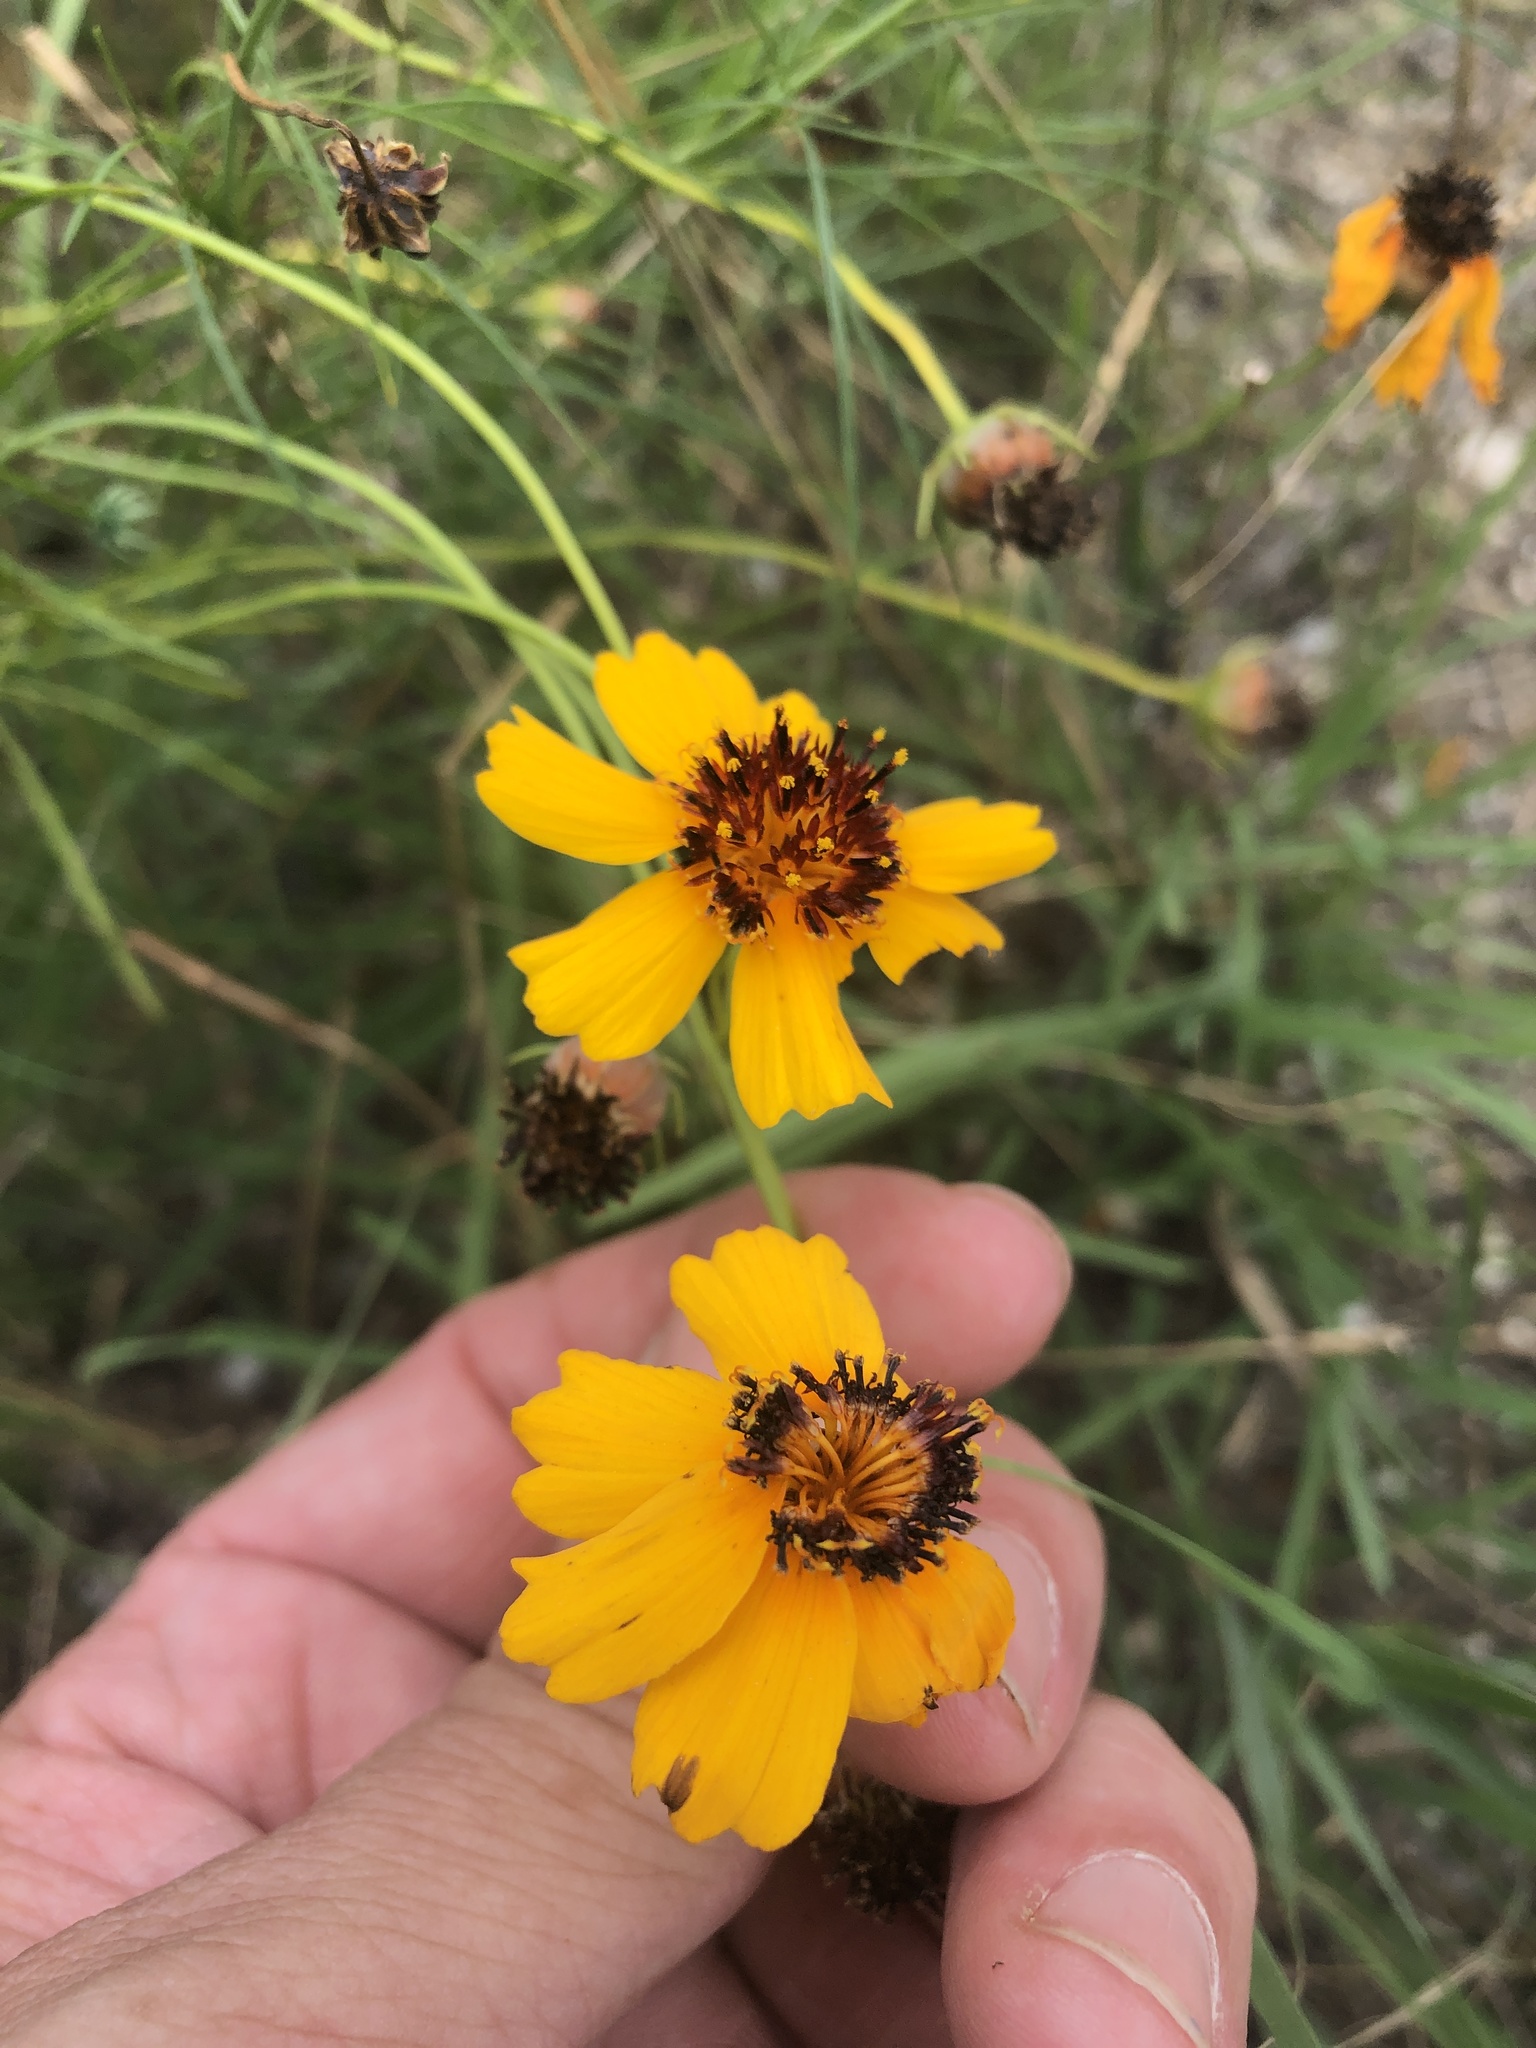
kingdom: Plantae
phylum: Tracheophyta
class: Magnoliopsida
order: Asterales
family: Asteraceae
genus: Thelesperma
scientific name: Thelesperma filifolium
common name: Stiff greenthread
